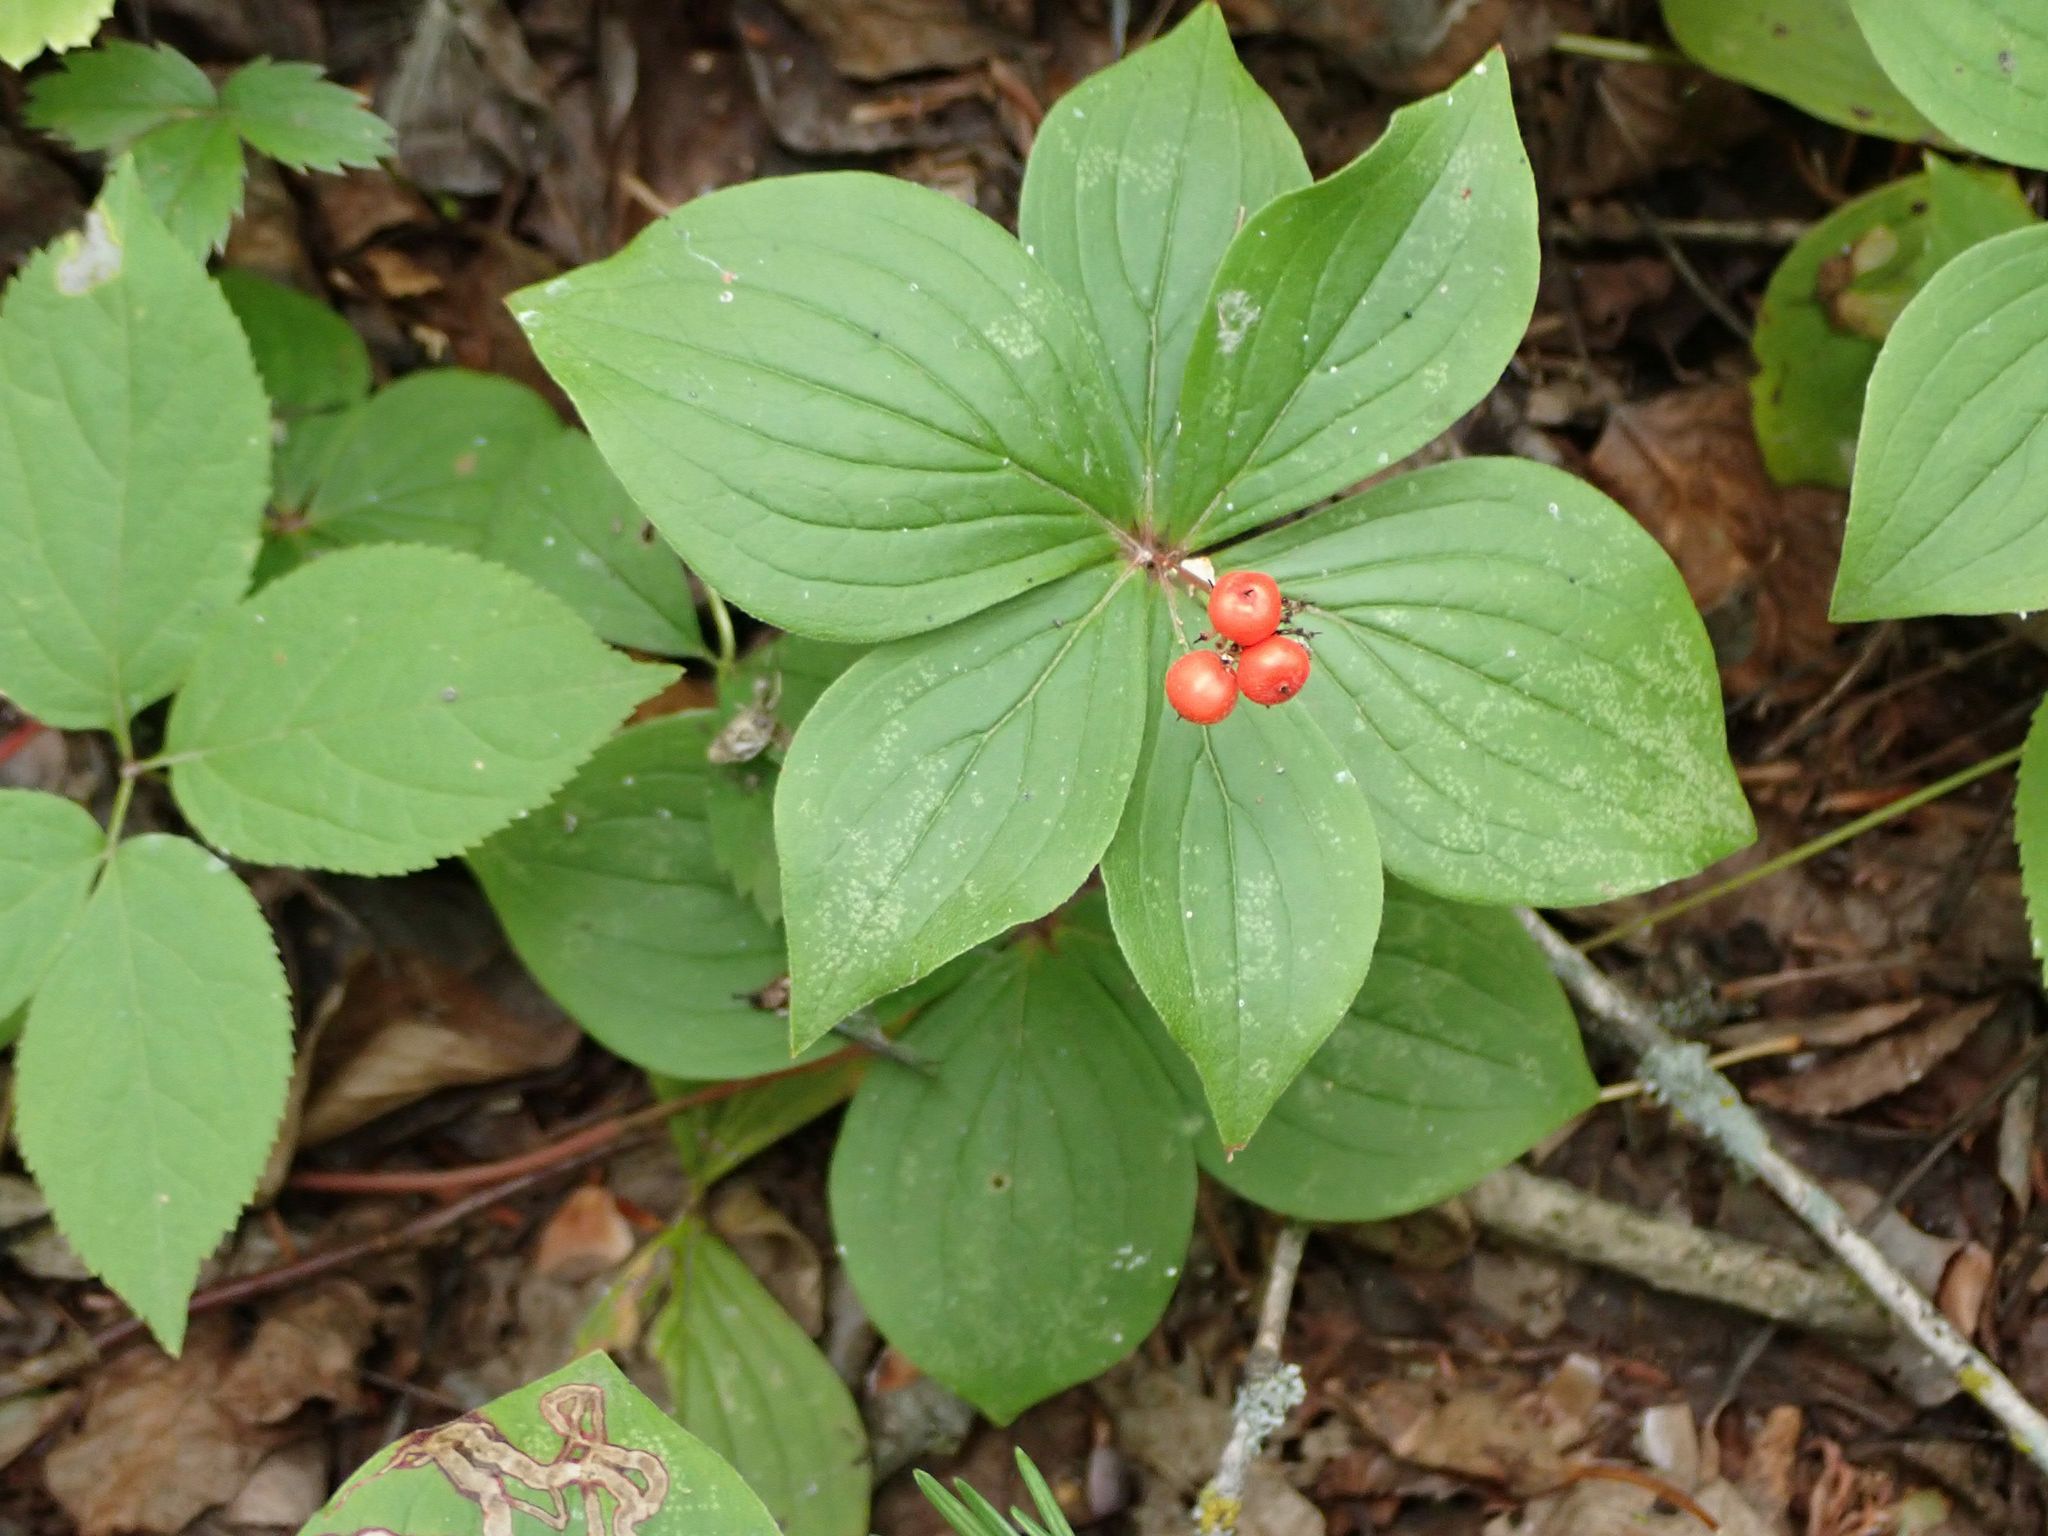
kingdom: Plantae
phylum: Tracheophyta
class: Magnoliopsida
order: Cornales
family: Cornaceae
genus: Cornus
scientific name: Cornus canadensis
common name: Creeping dogwood
